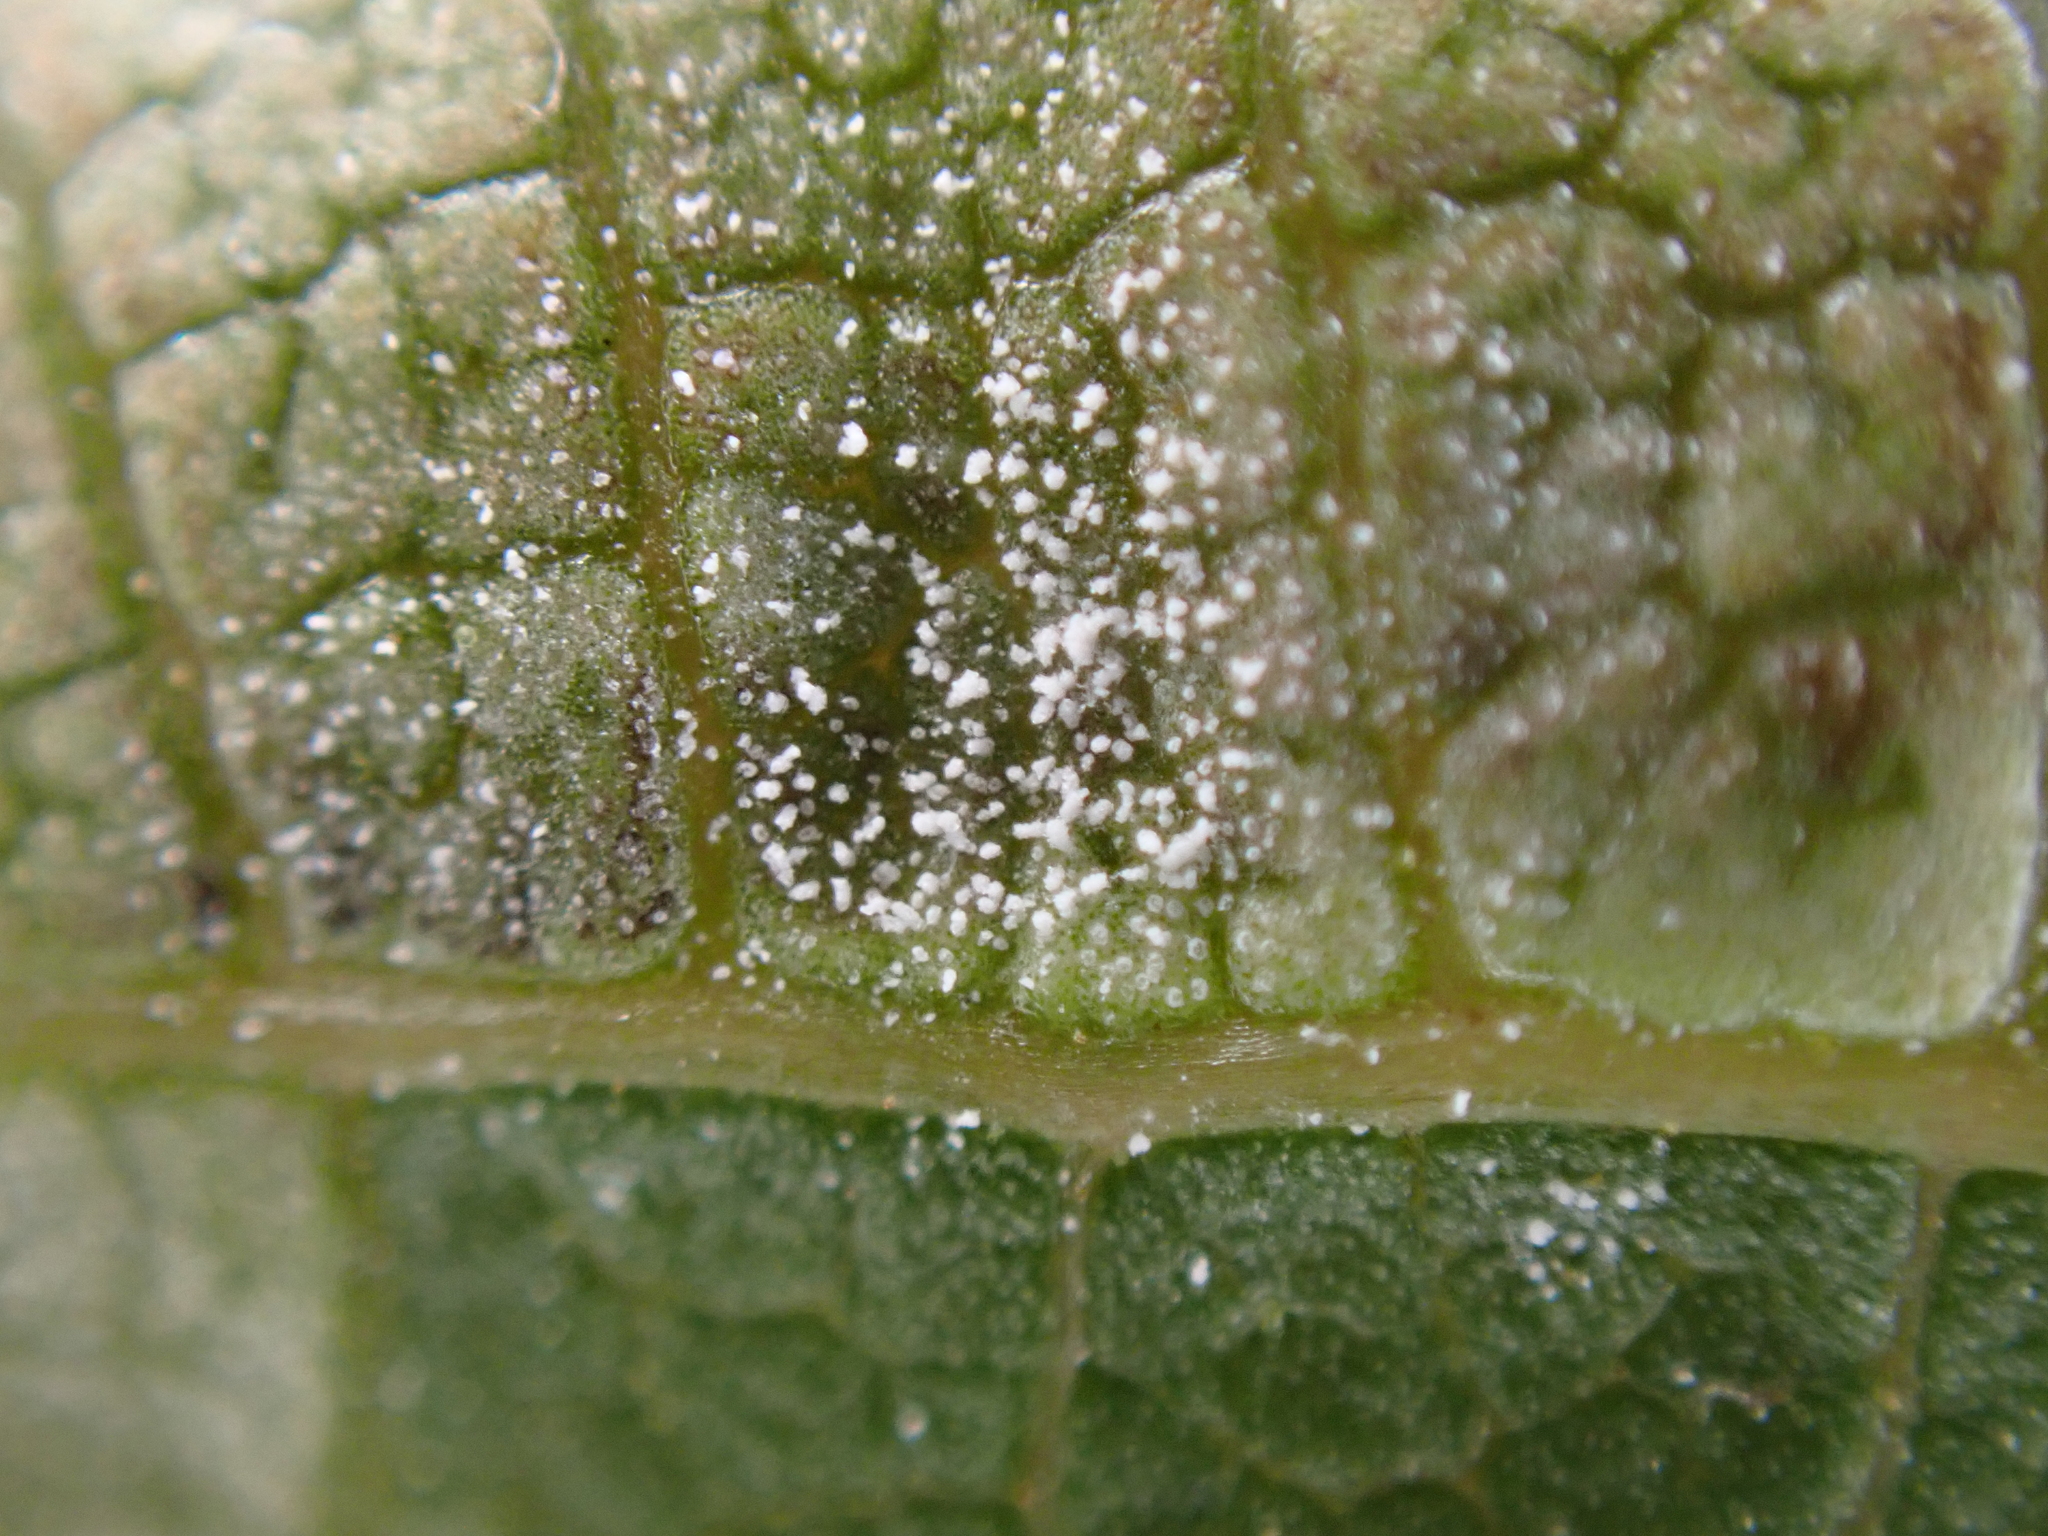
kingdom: Fungi
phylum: Basidiomycota
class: Exobasidiomycetes
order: Microstromatales
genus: Pseudomicrostroma
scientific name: Pseudomicrostroma juglandis
